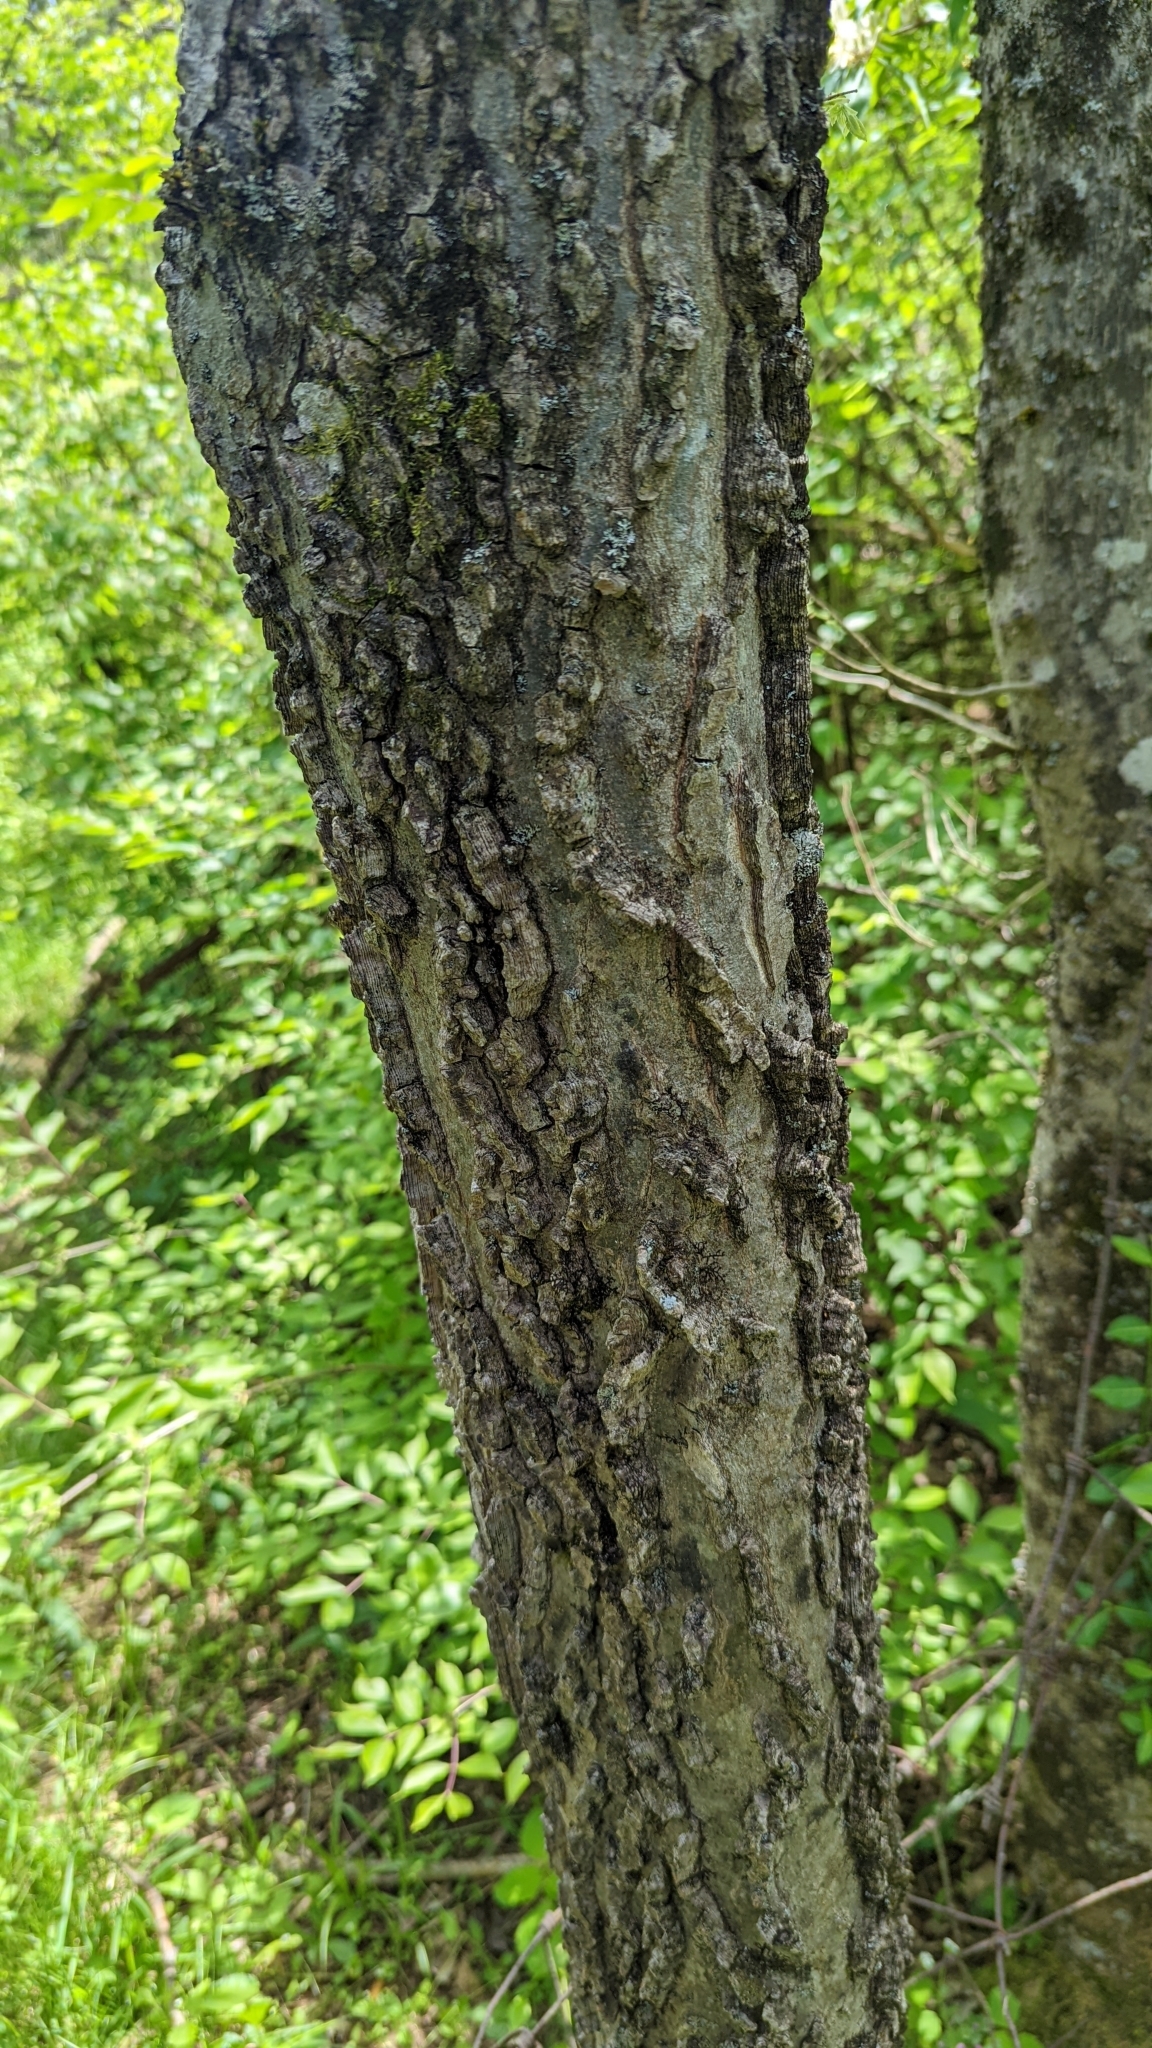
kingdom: Plantae
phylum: Tracheophyta
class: Magnoliopsida
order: Rosales
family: Cannabaceae
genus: Celtis
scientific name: Celtis occidentalis
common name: Common hackberry
